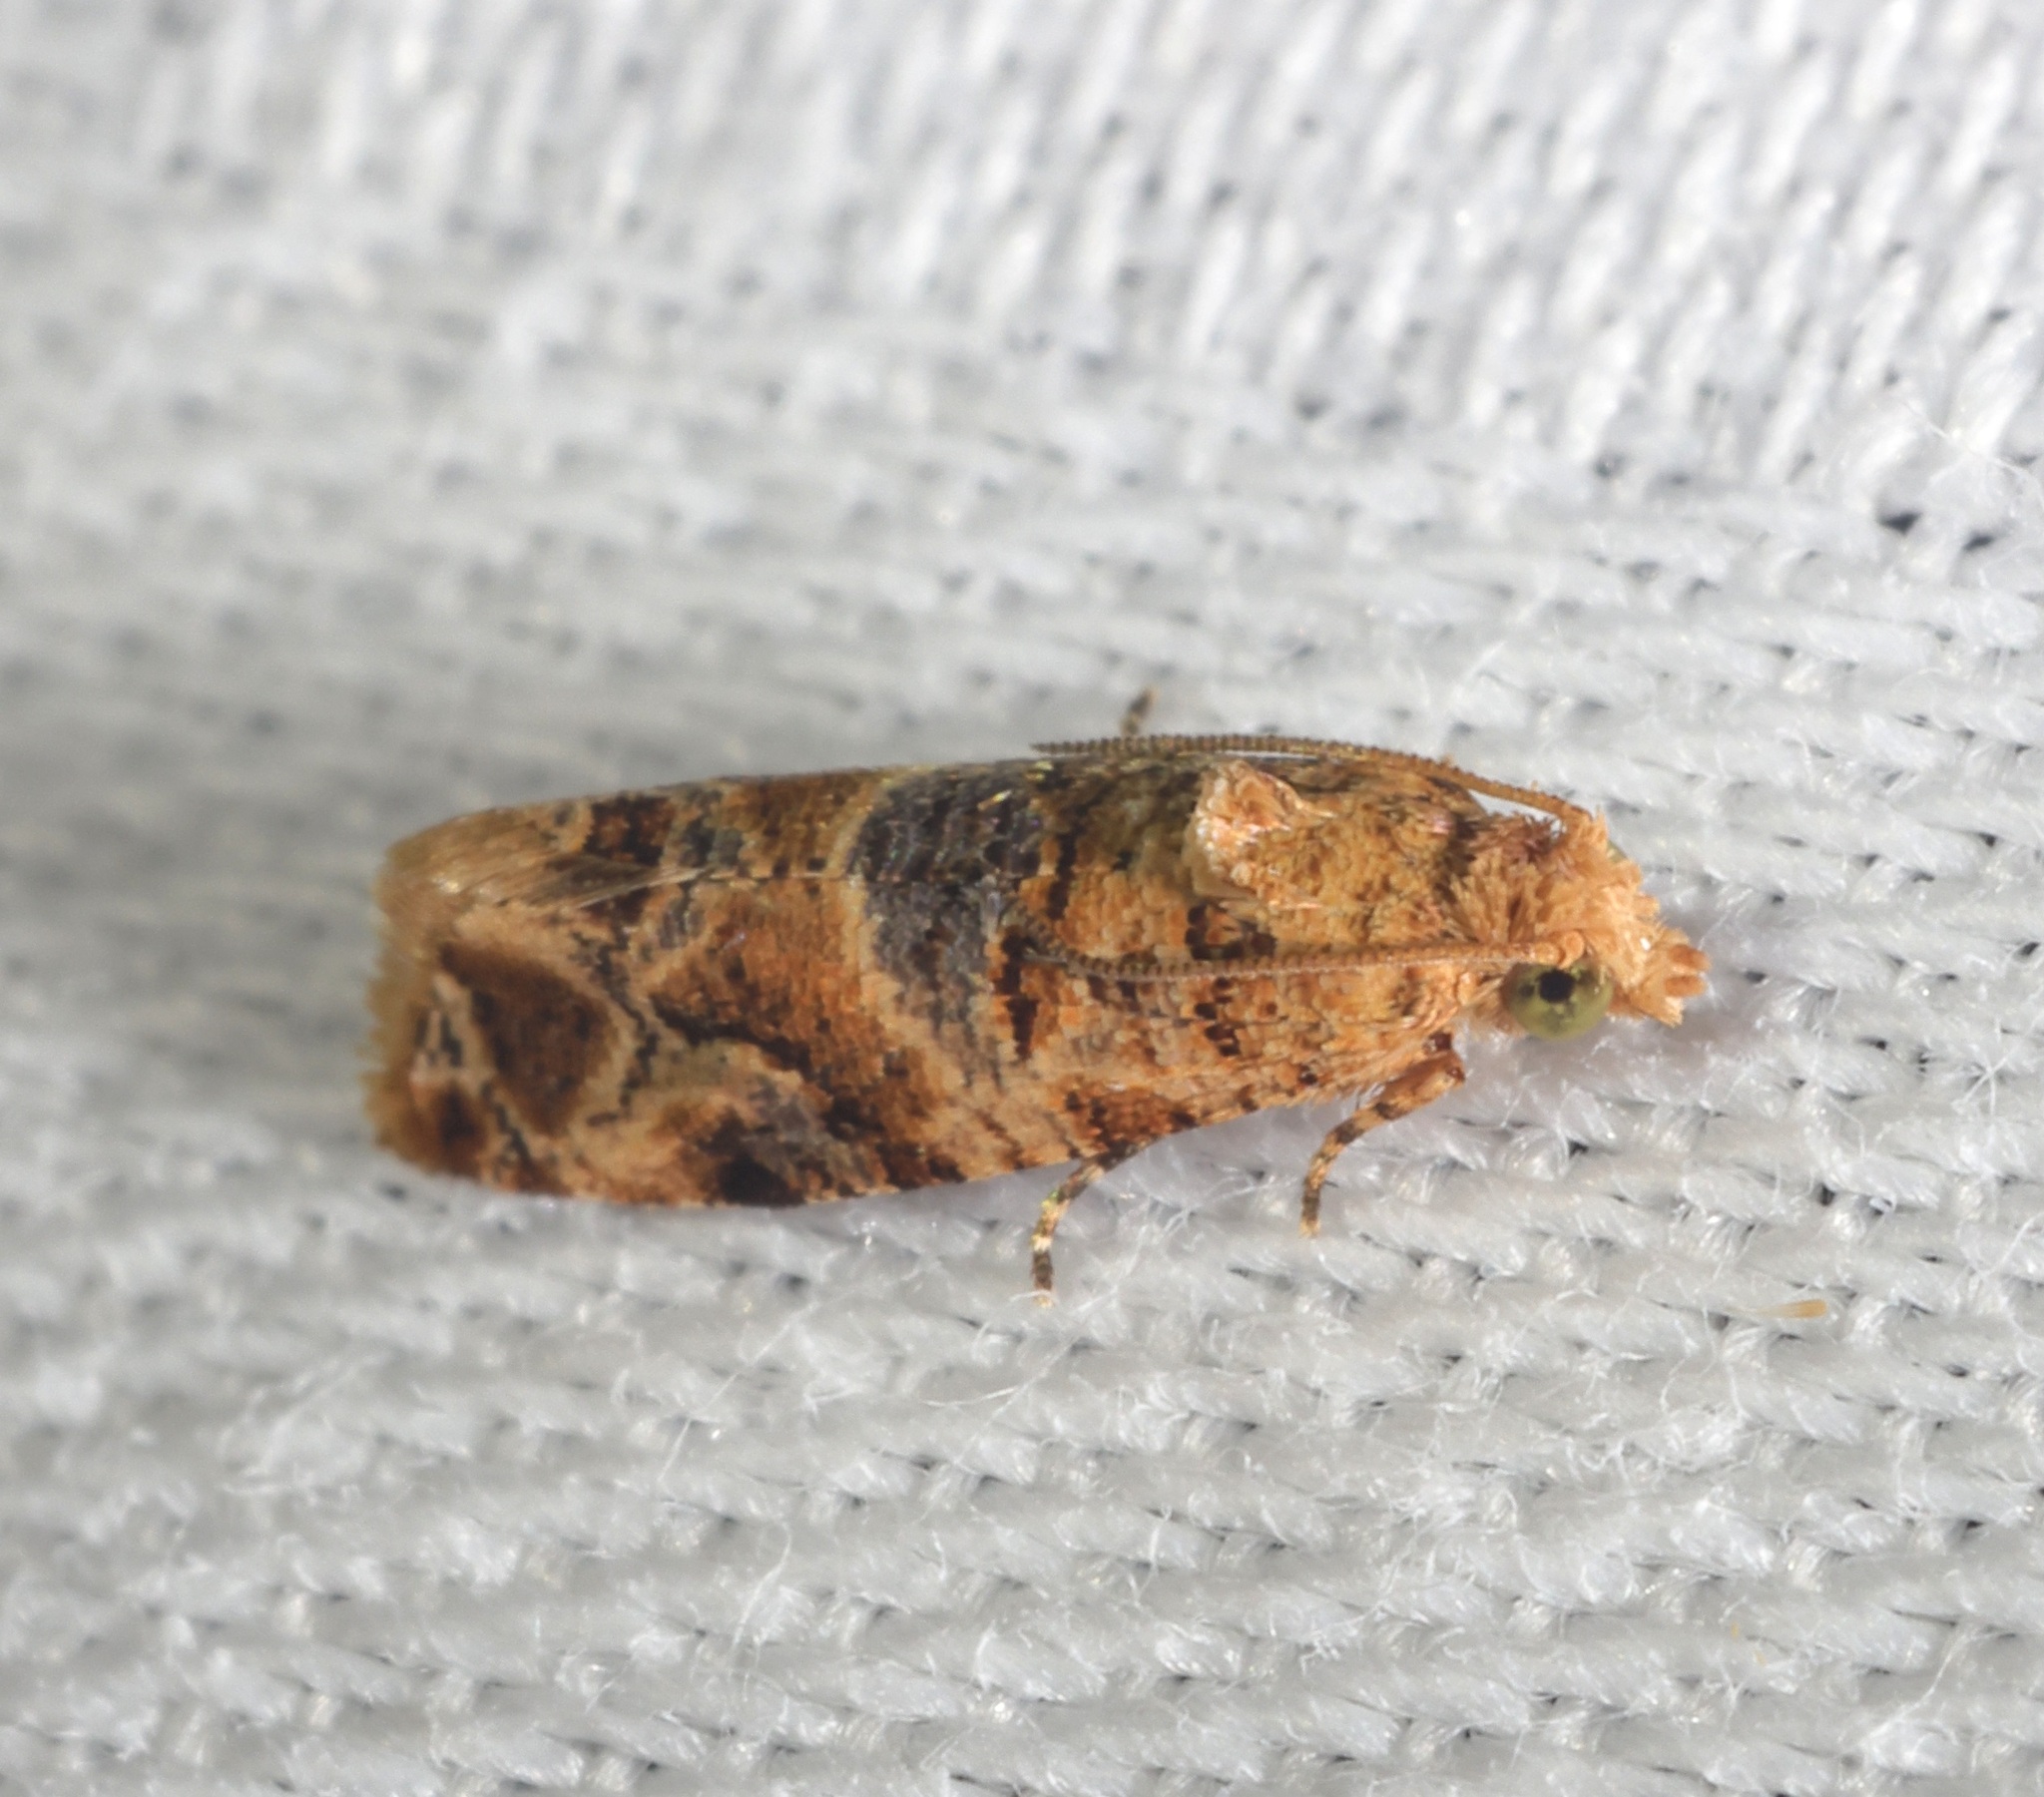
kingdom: Animalia
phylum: Arthropoda
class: Insecta
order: Lepidoptera
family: Tortricidae
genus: Lobesia
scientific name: Lobesia aeolopa
